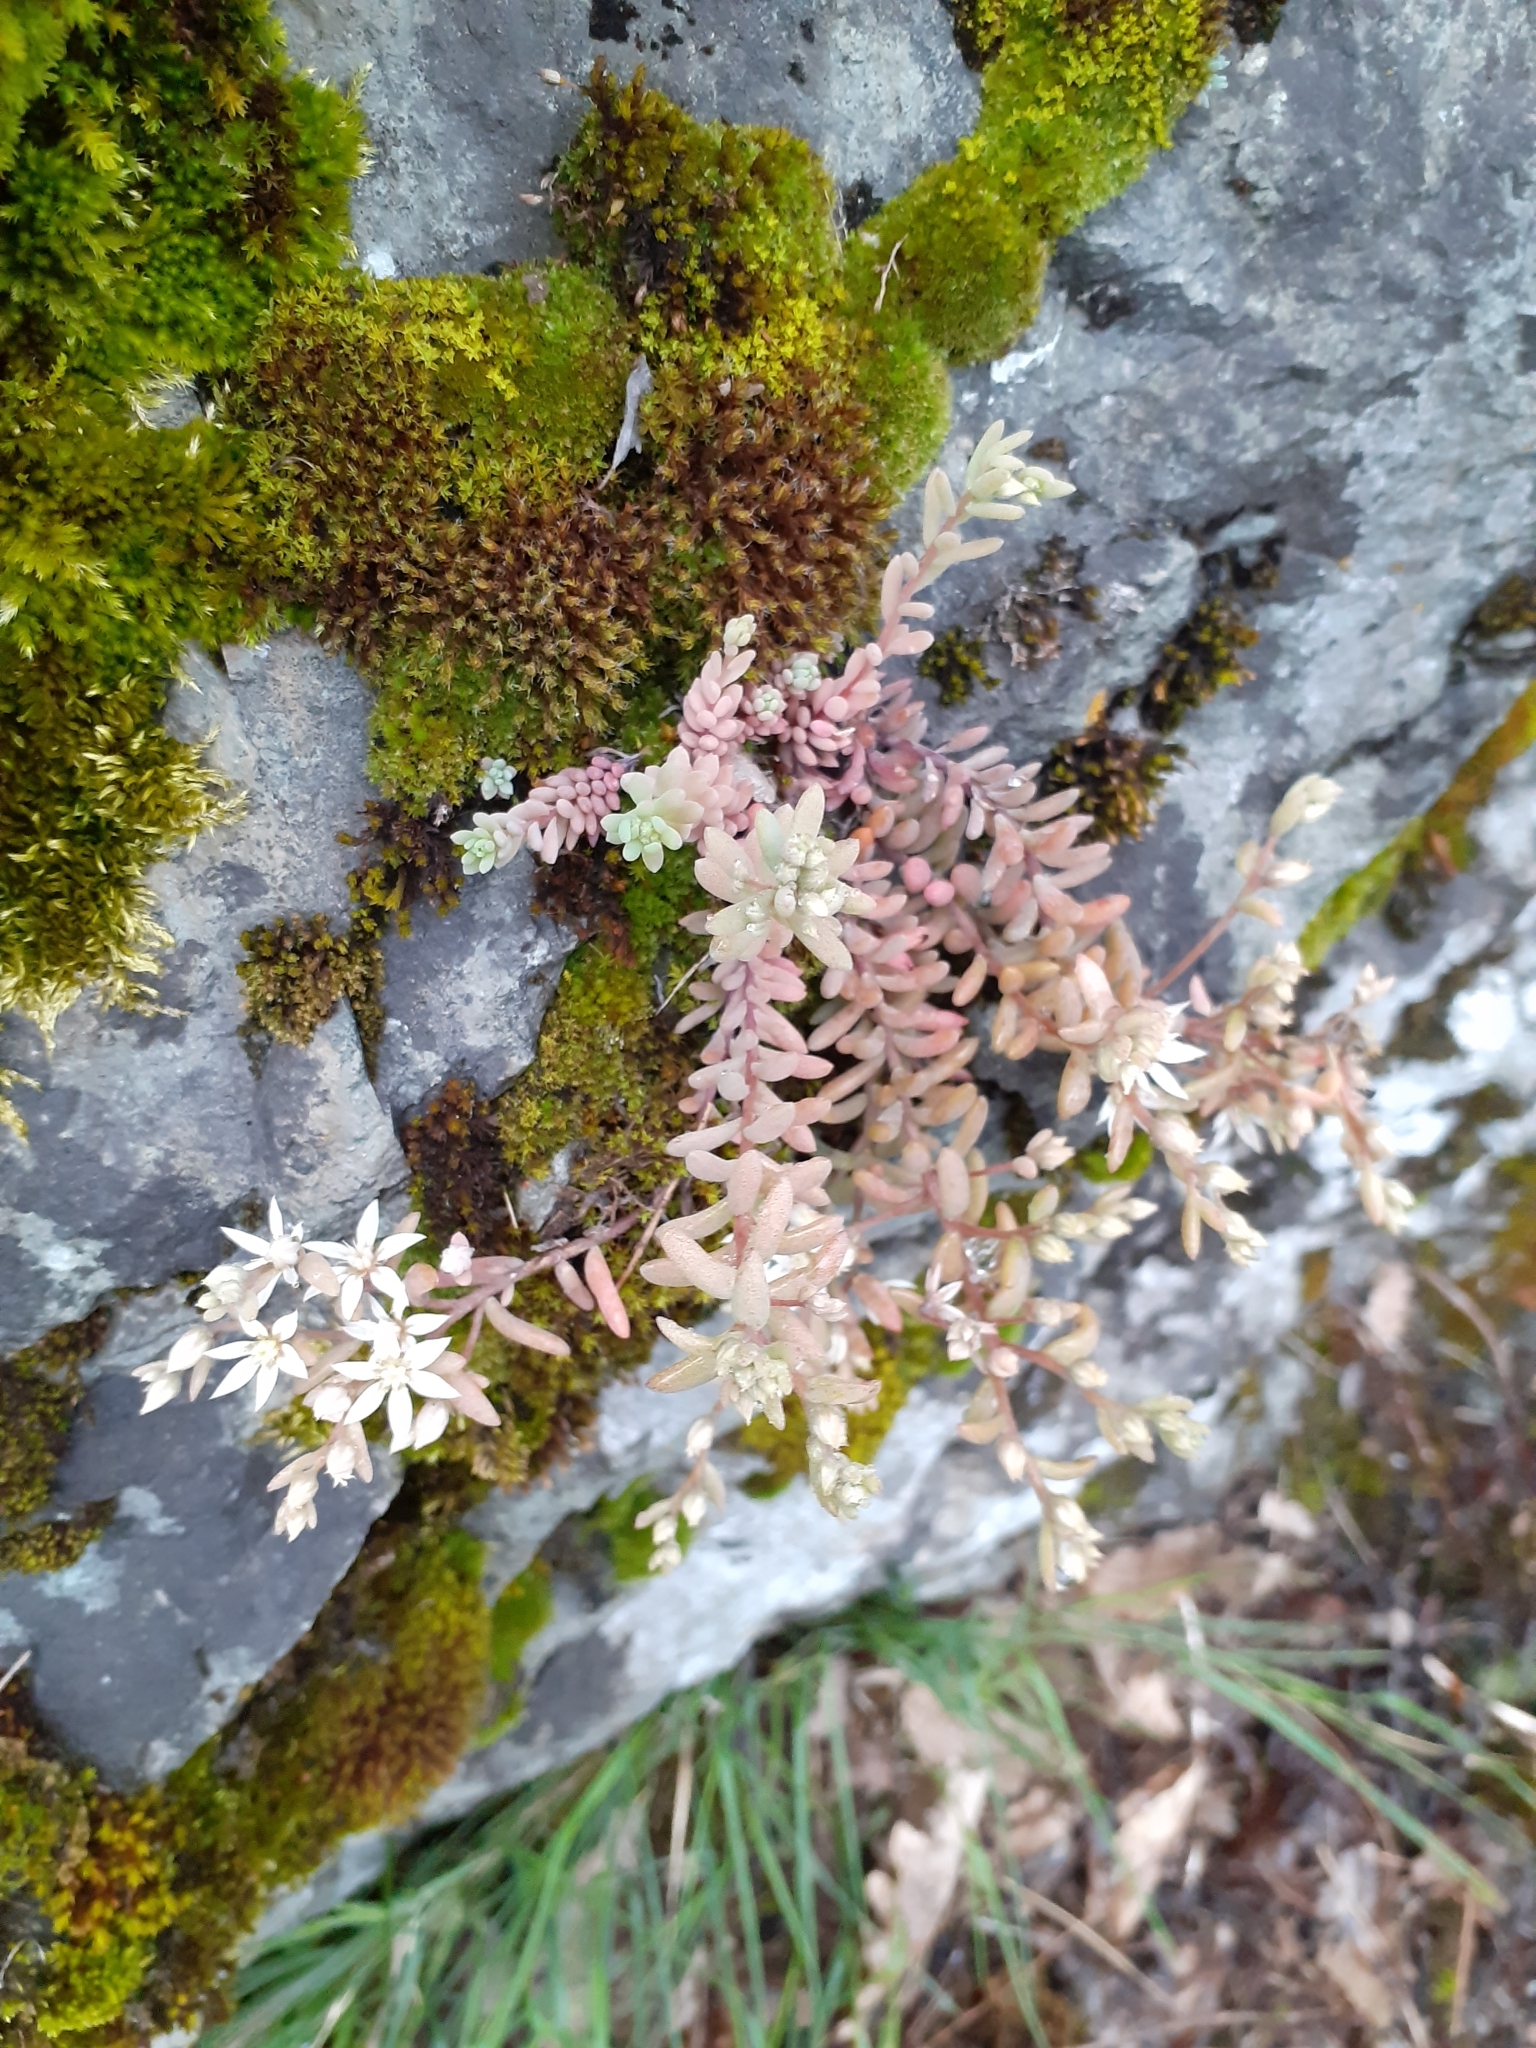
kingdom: Plantae
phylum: Tracheophyta
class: Magnoliopsida
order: Saxifragales
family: Crassulaceae
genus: Sedum
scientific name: Sedum hispanicum
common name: Spanish stonecrop
